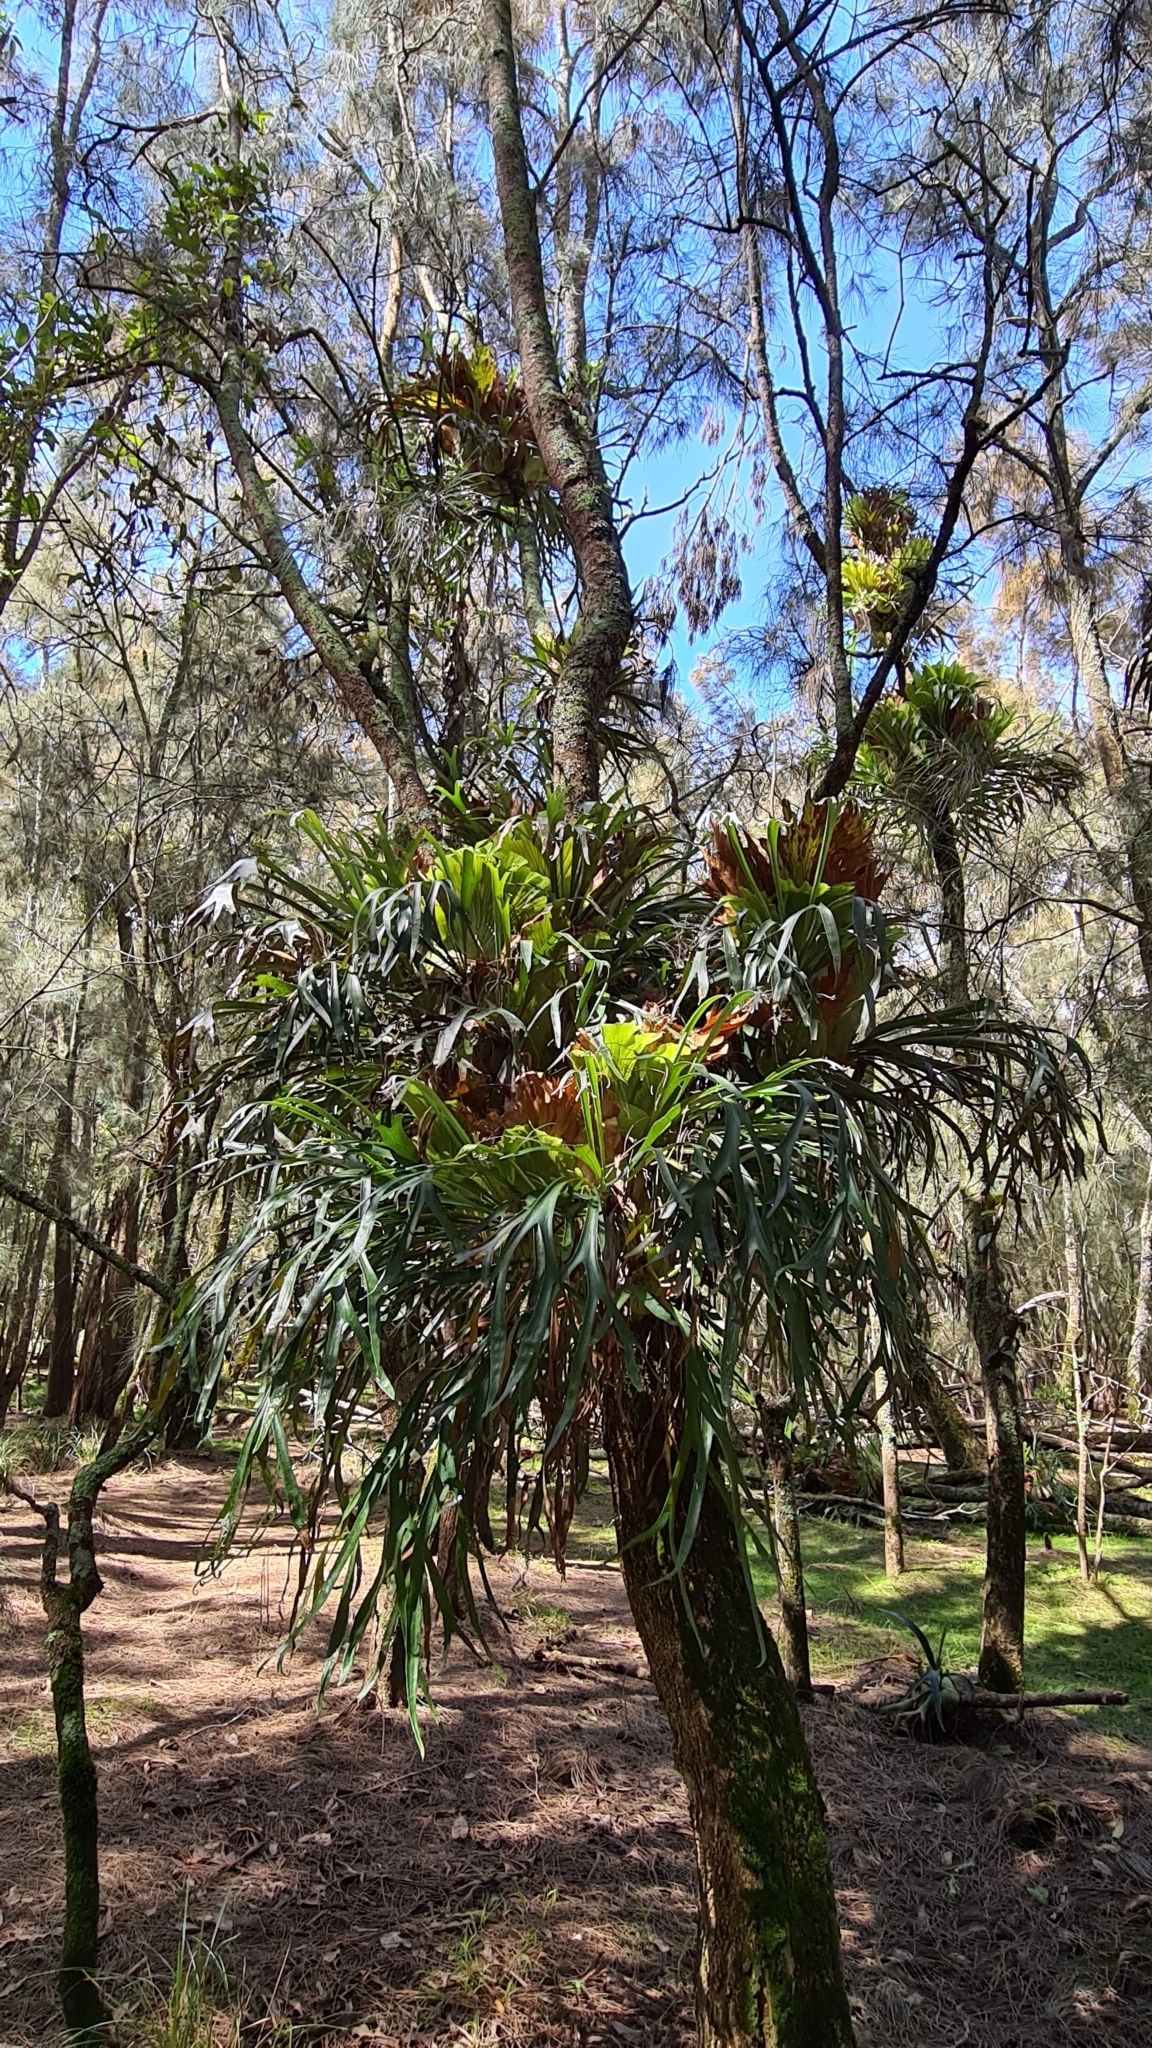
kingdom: Plantae
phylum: Tracheophyta
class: Polypodiopsida
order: Polypodiales
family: Polypodiaceae
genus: Platycerium
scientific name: Platycerium bifurcatum
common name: Elkhorn fern
